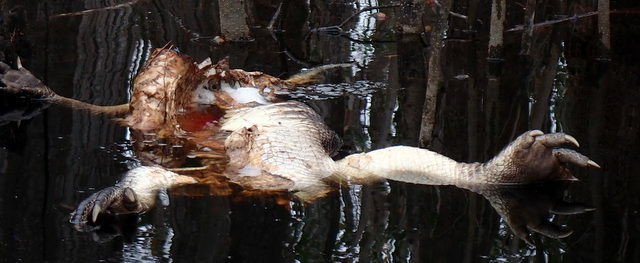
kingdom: Animalia
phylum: Chordata
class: Crocodylia
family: Alligatoridae
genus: Alligator
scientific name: Alligator mississippiensis
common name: American alligator
